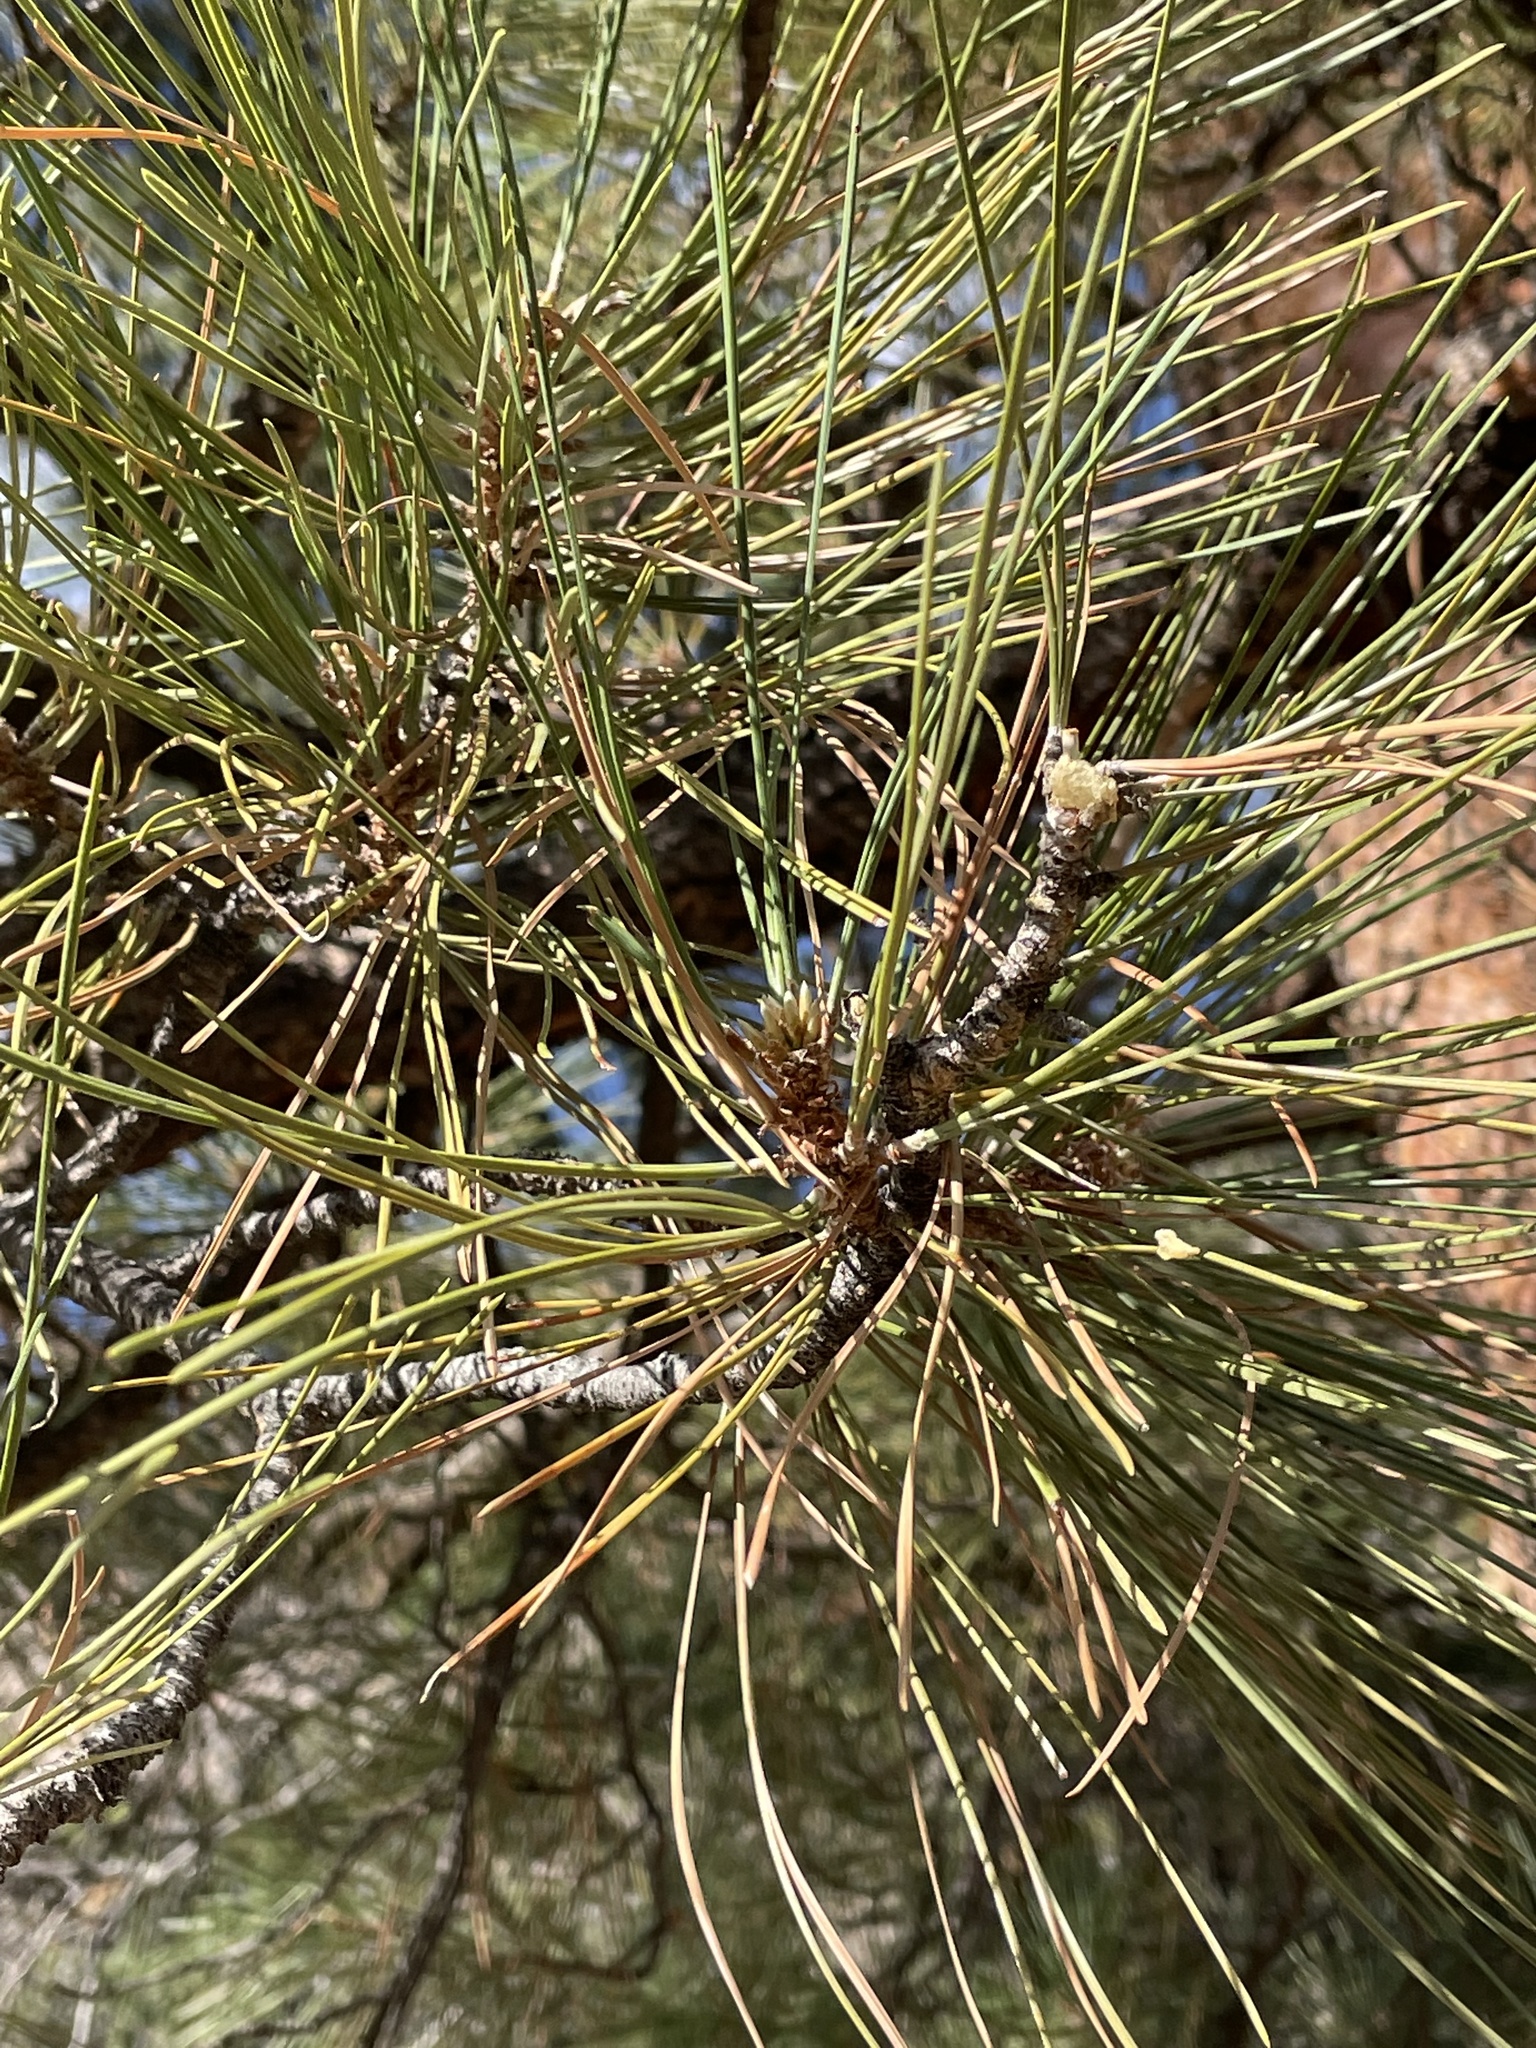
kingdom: Plantae
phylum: Tracheophyta
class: Pinopsida
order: Pinales
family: Pinaceae
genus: Pinus
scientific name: Pinus ponderosa
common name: Western yellow-pine
